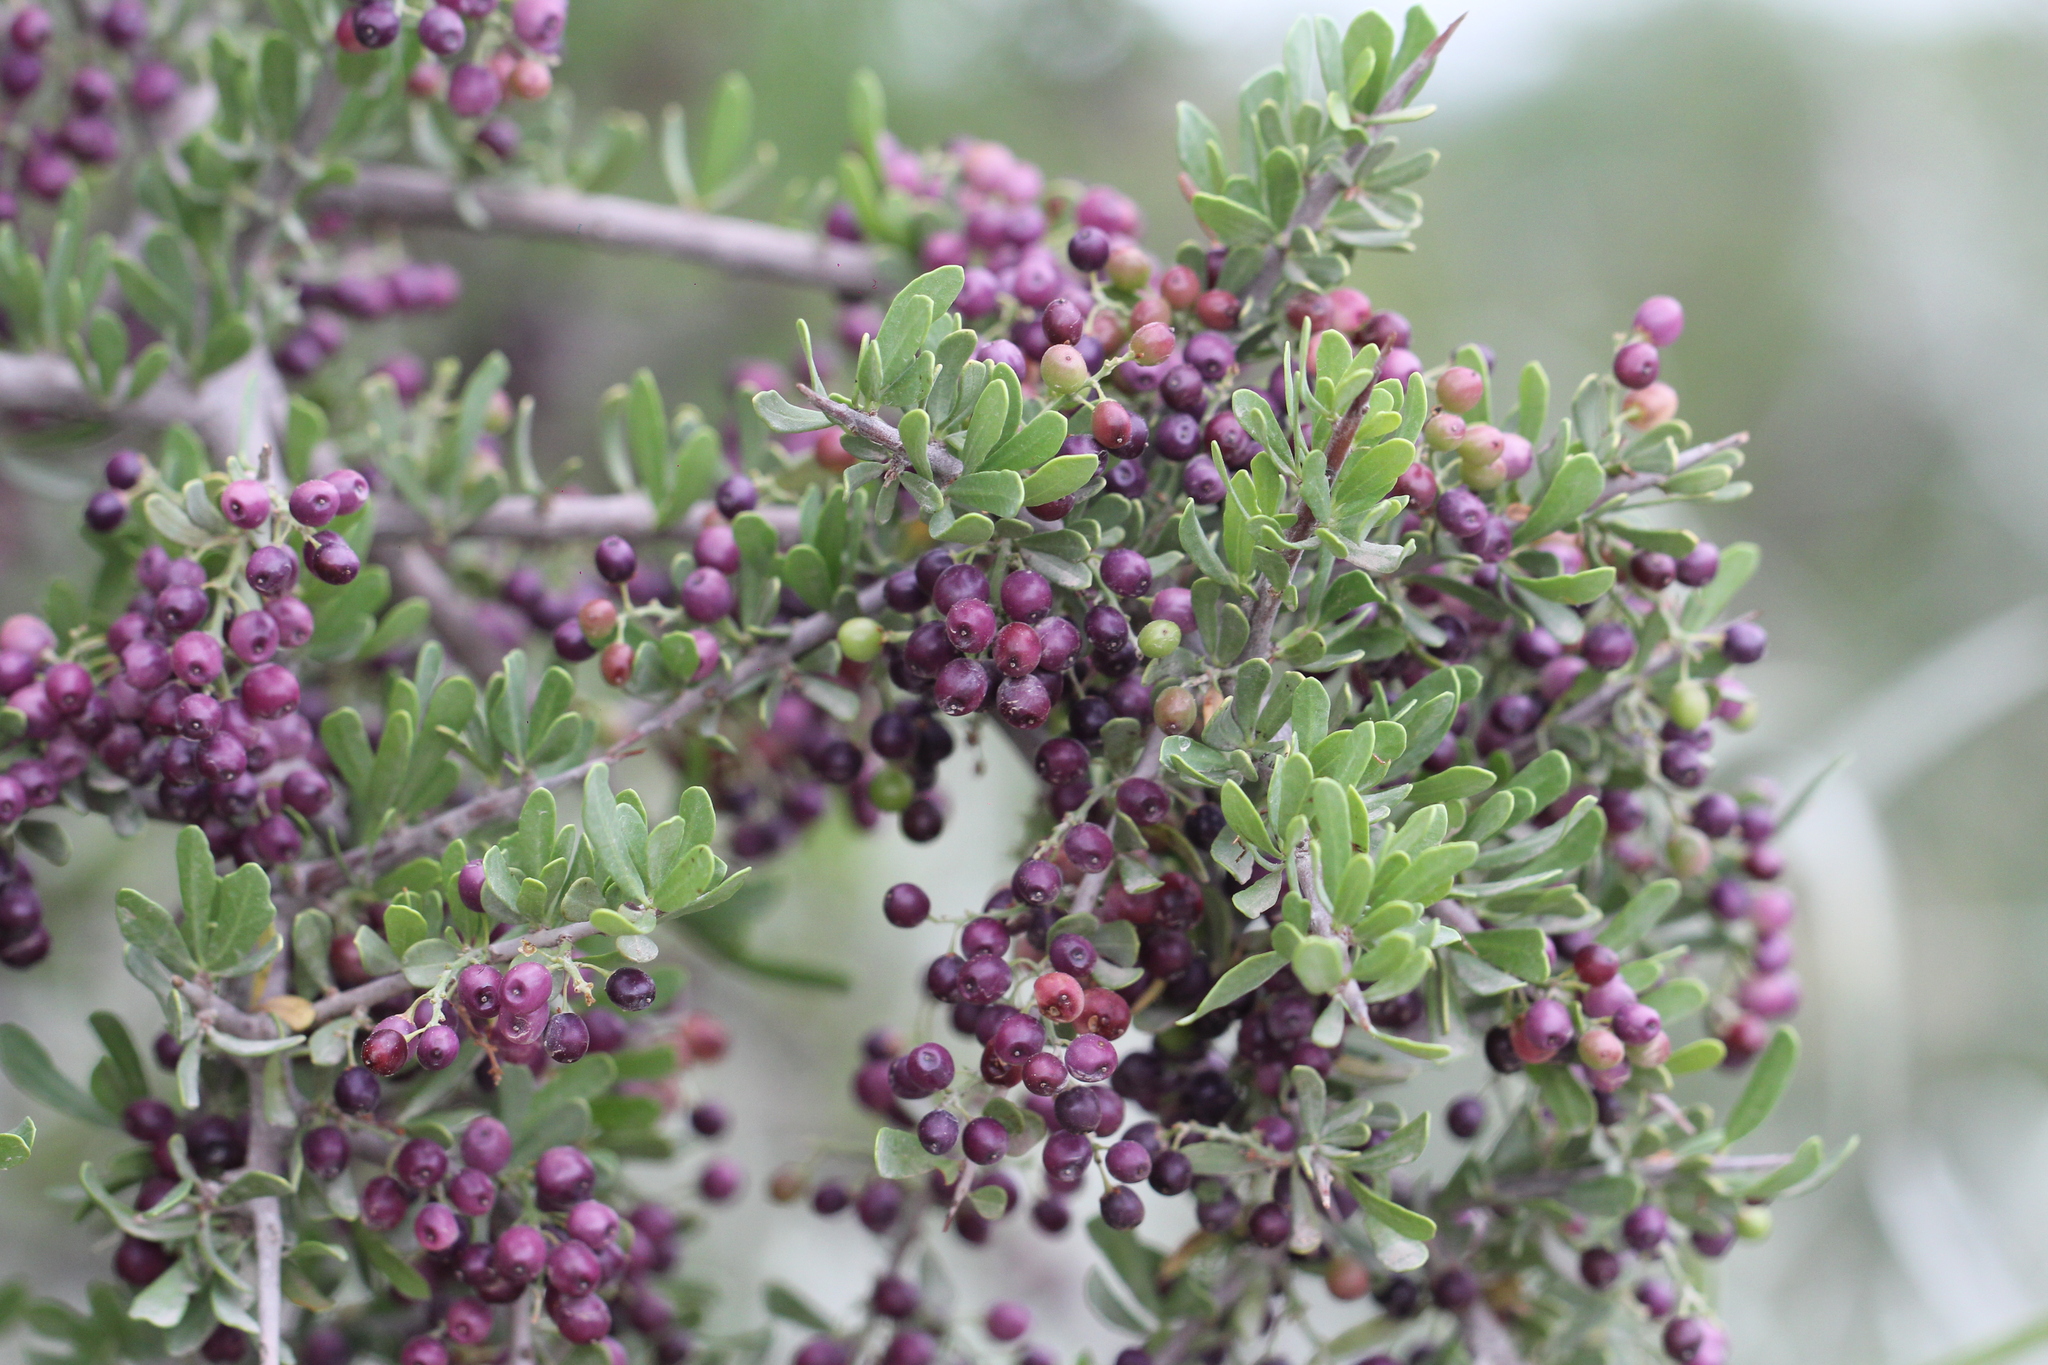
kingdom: Plantae
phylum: Tracheophyta
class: Magnoliopsida
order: Sapindales
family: Anacardiaceae
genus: Schinus
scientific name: Schinus fasciculata
